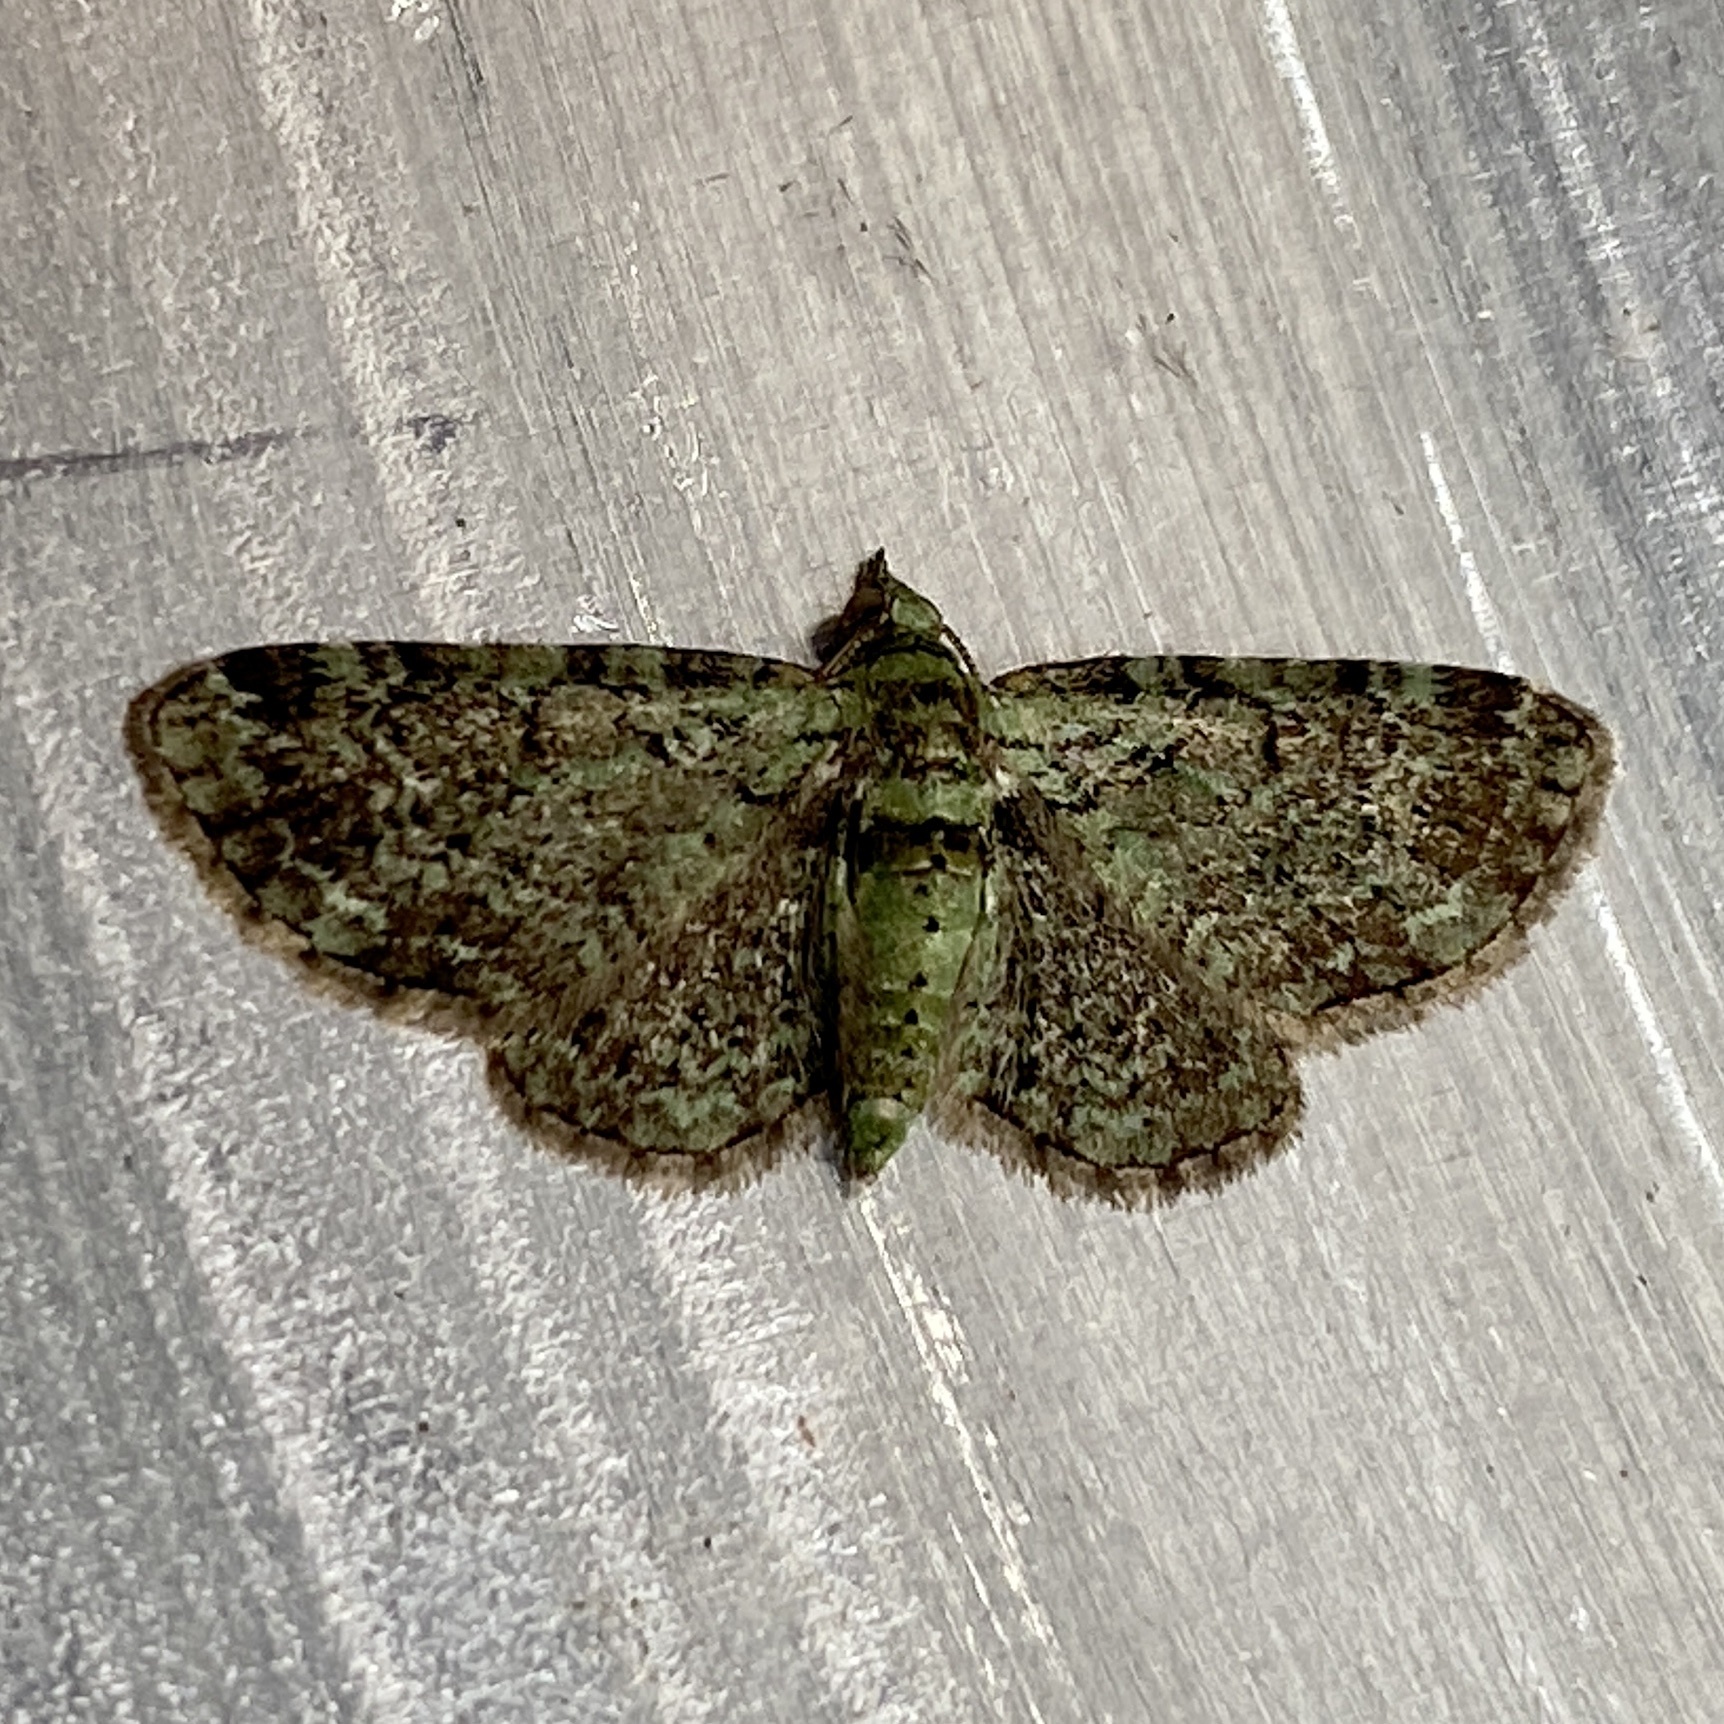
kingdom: Animalia
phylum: Arthropoda
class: Insecta
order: Lepidoptera
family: Geometridae
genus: Pasiphila
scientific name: Pasiphila rectangulata
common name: Green pug
